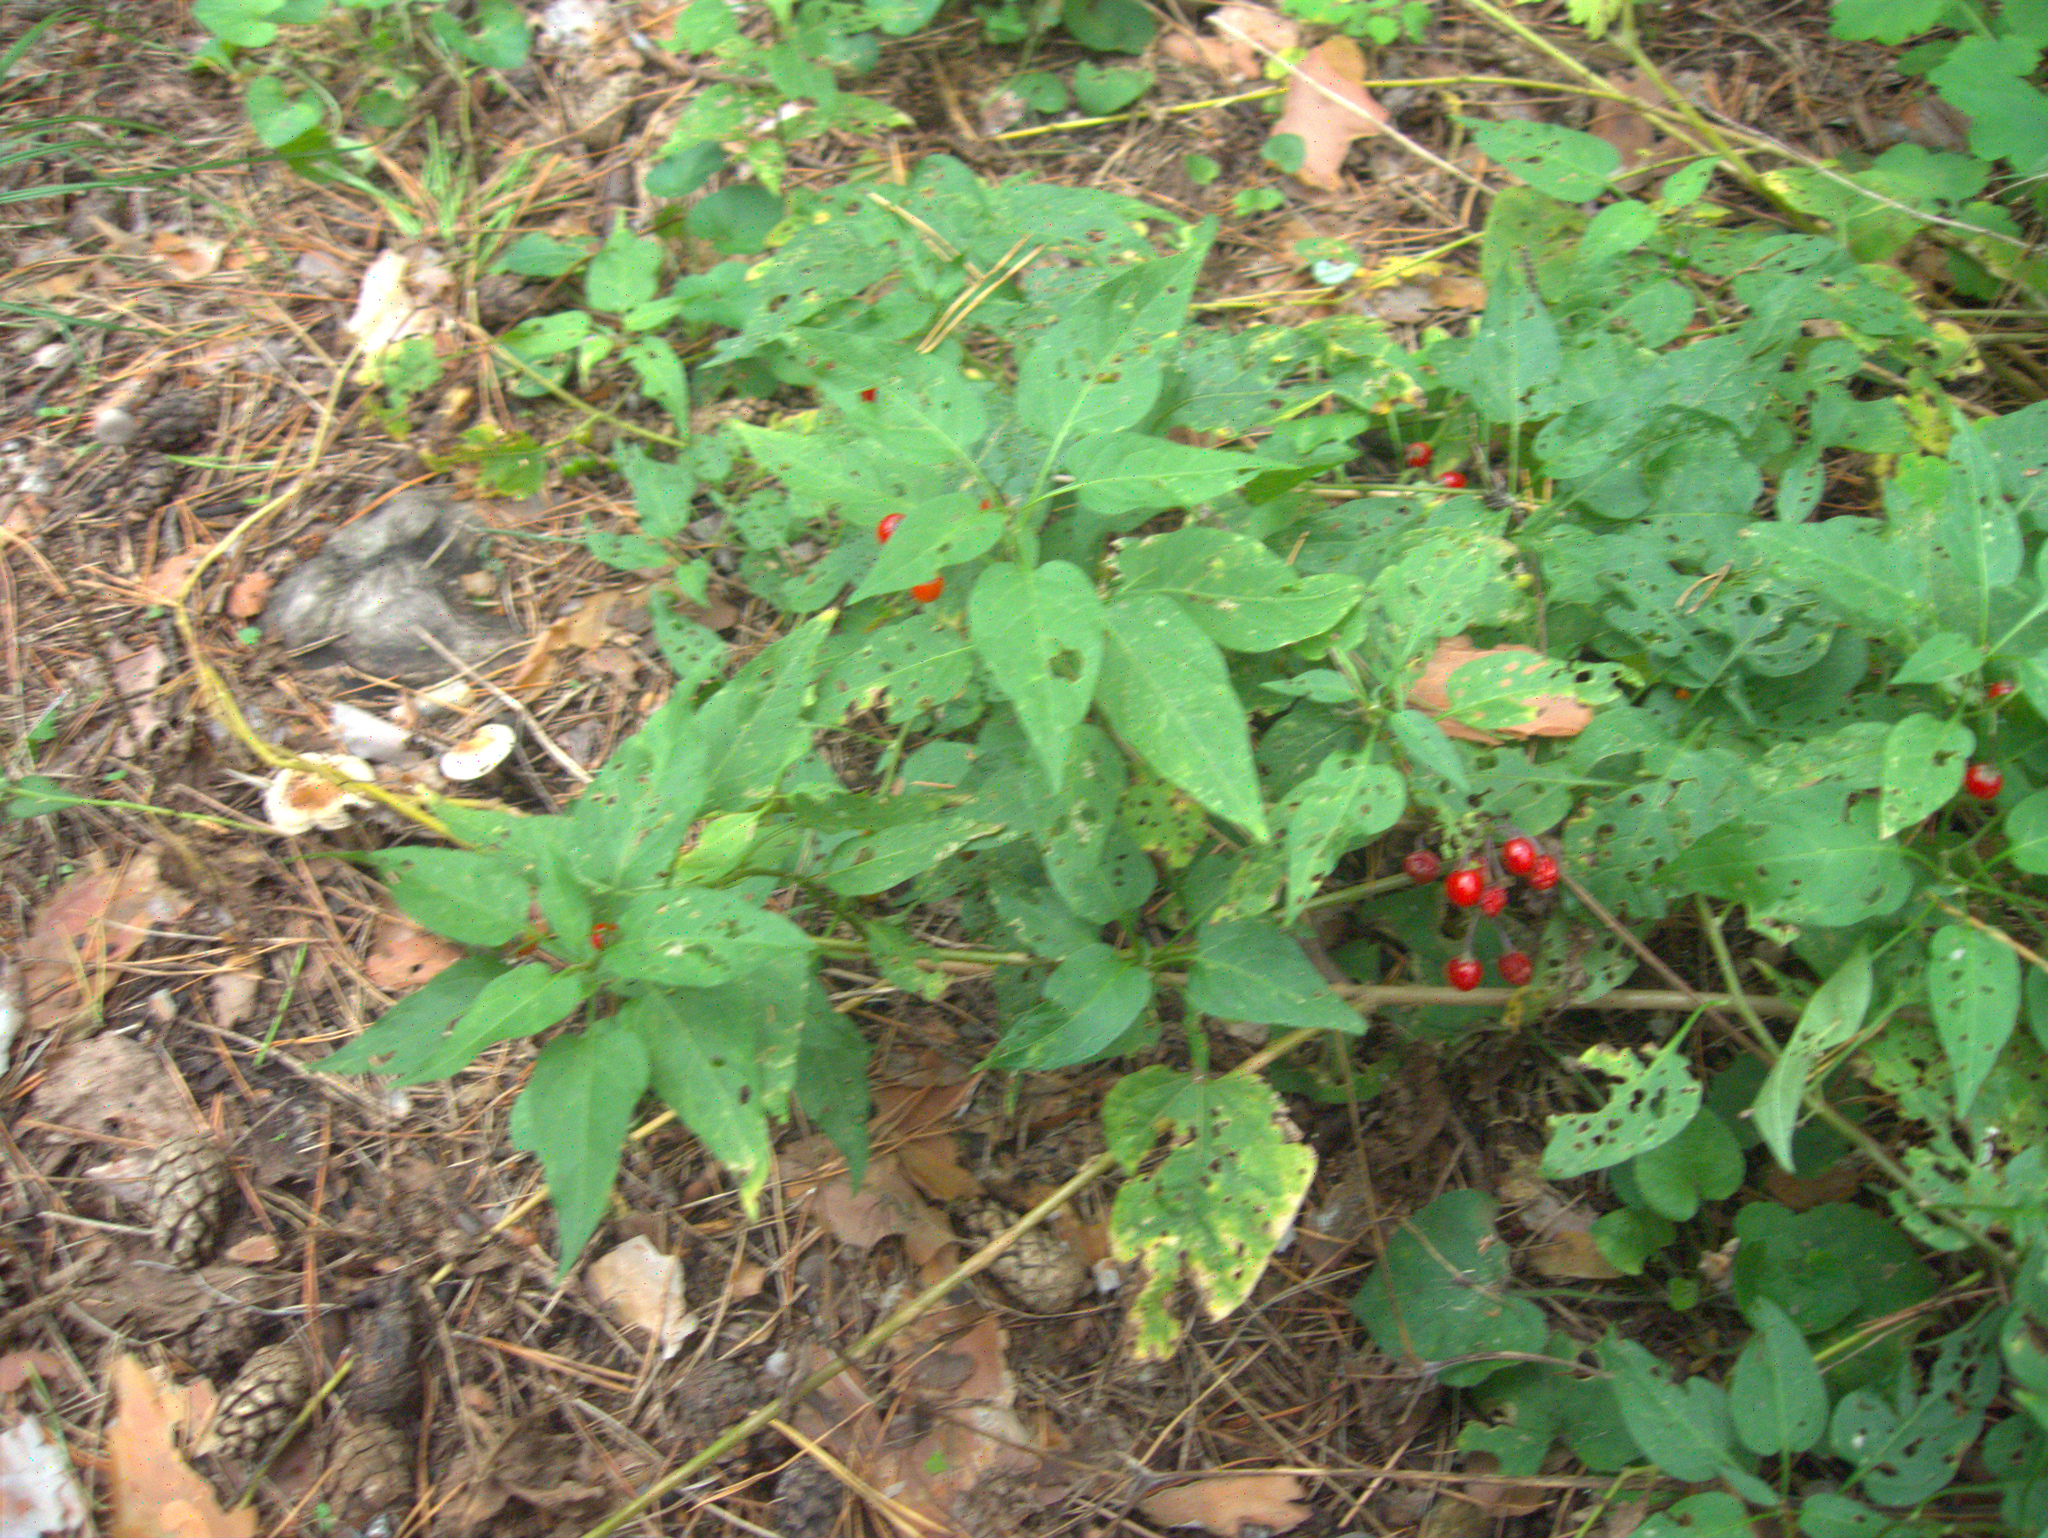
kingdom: Plantae
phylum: Tracheophyta
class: Magnoliopsida
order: Solanales
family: Solanaceae
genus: Solanum
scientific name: Solanum dulcamara
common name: Climbing nightshade
